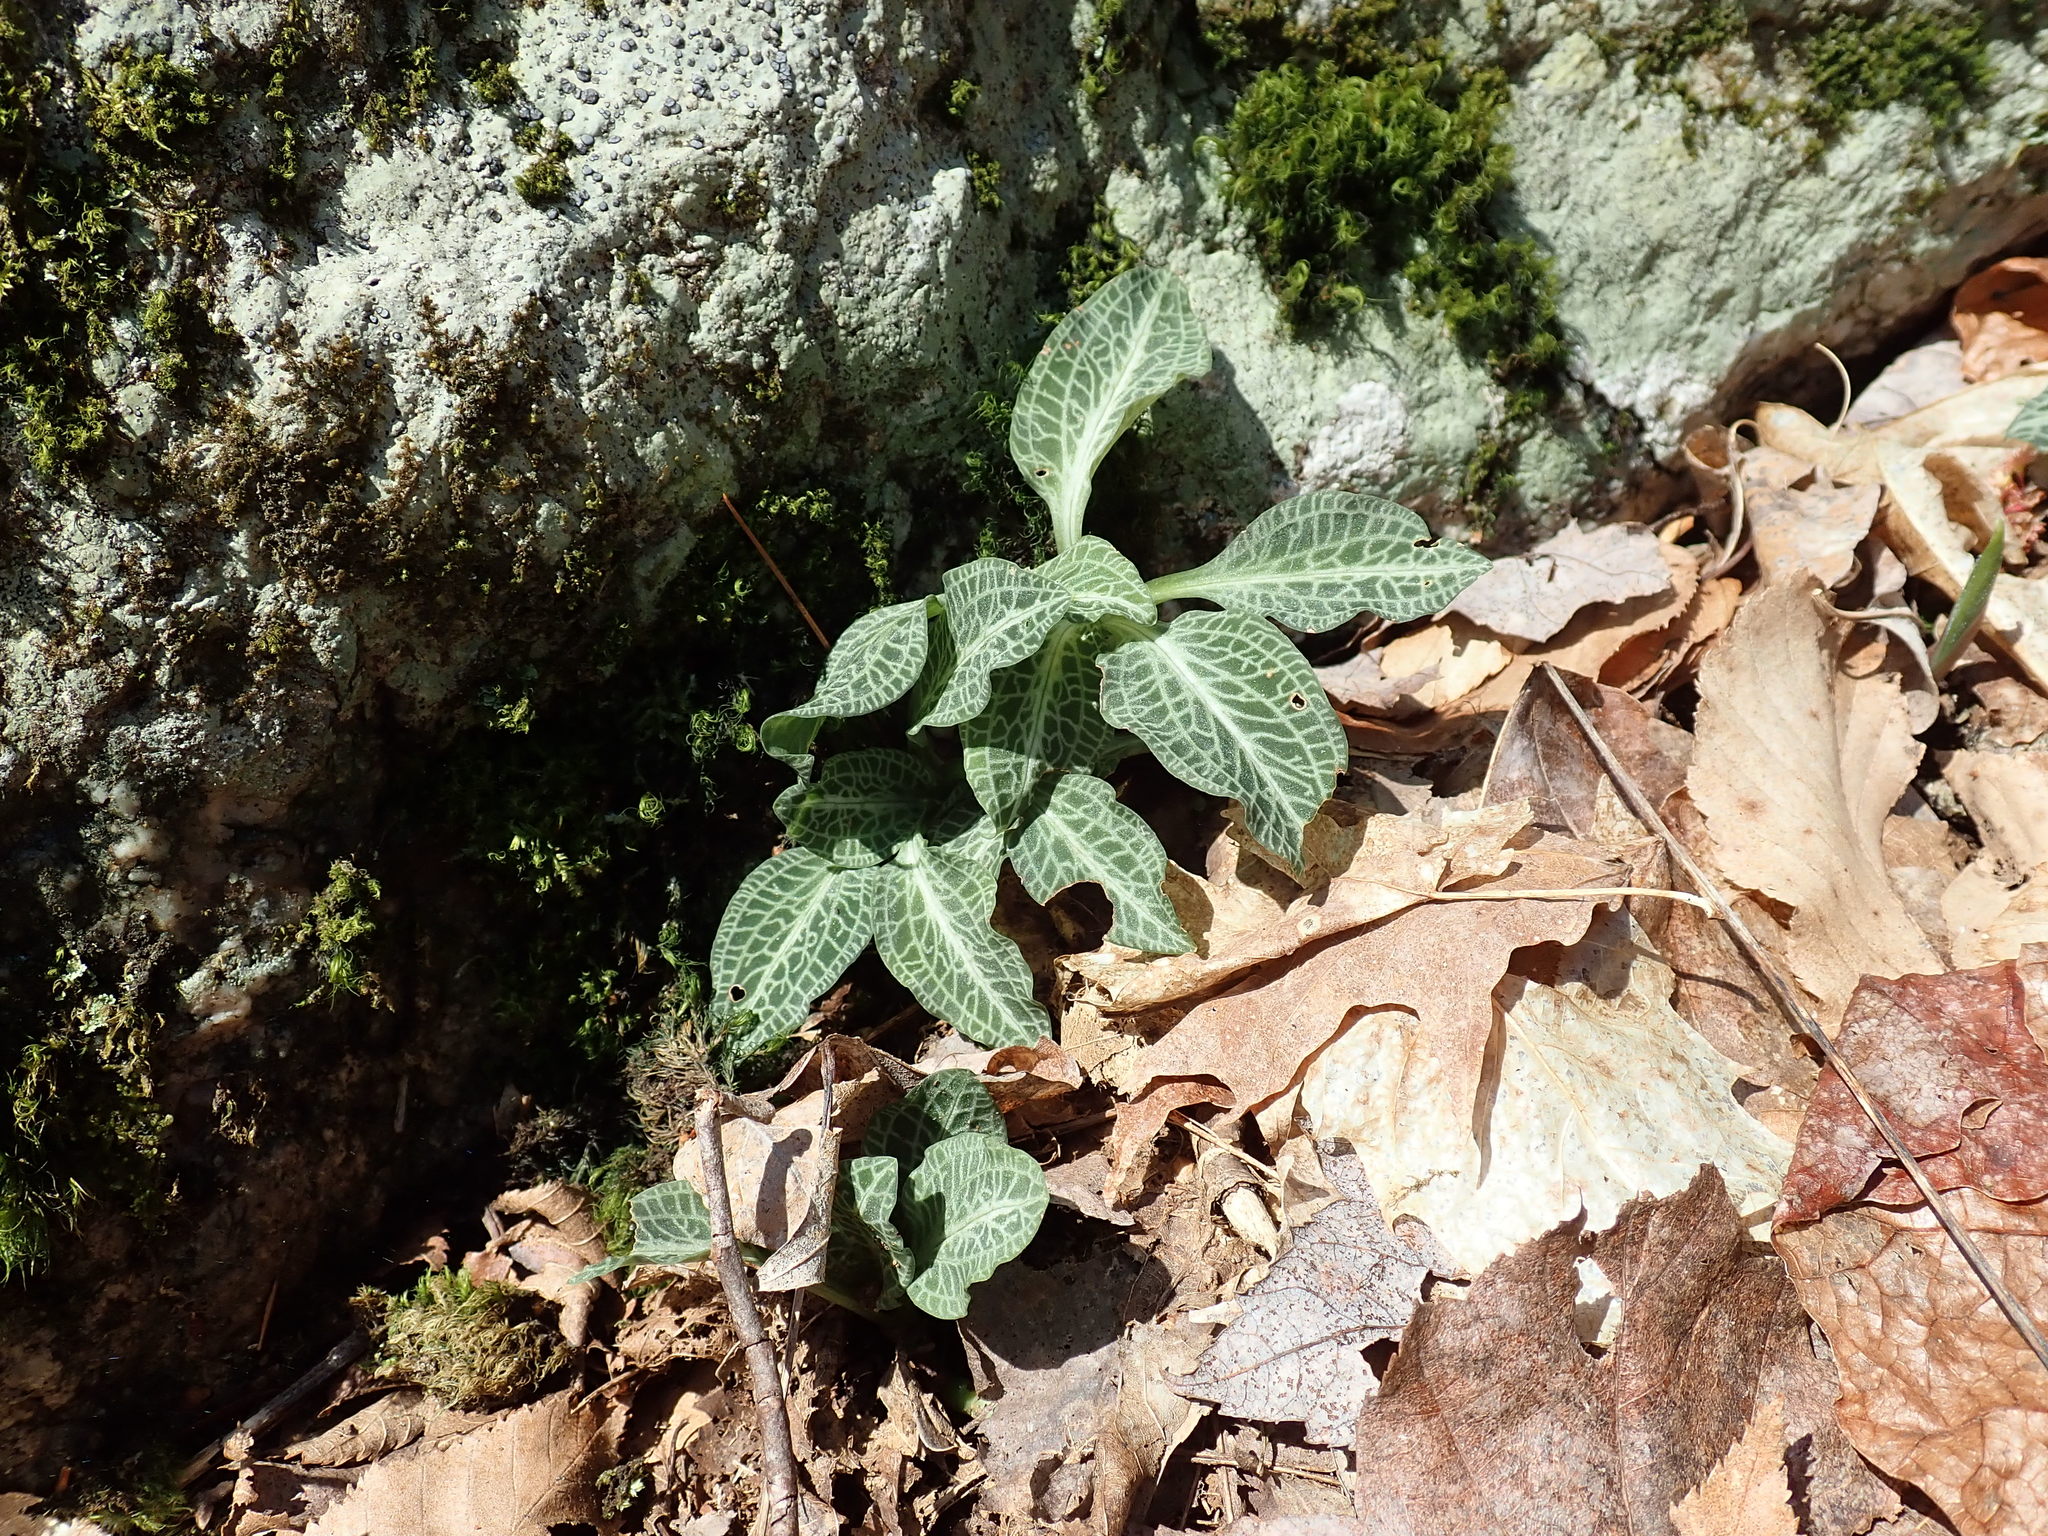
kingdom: Plantae
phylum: Tracheophyta
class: Liliopsida
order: Asparagales
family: Orchidaceae
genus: Goodyera
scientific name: Goodyera pubescens
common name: Downy rattlesnake-plantain
